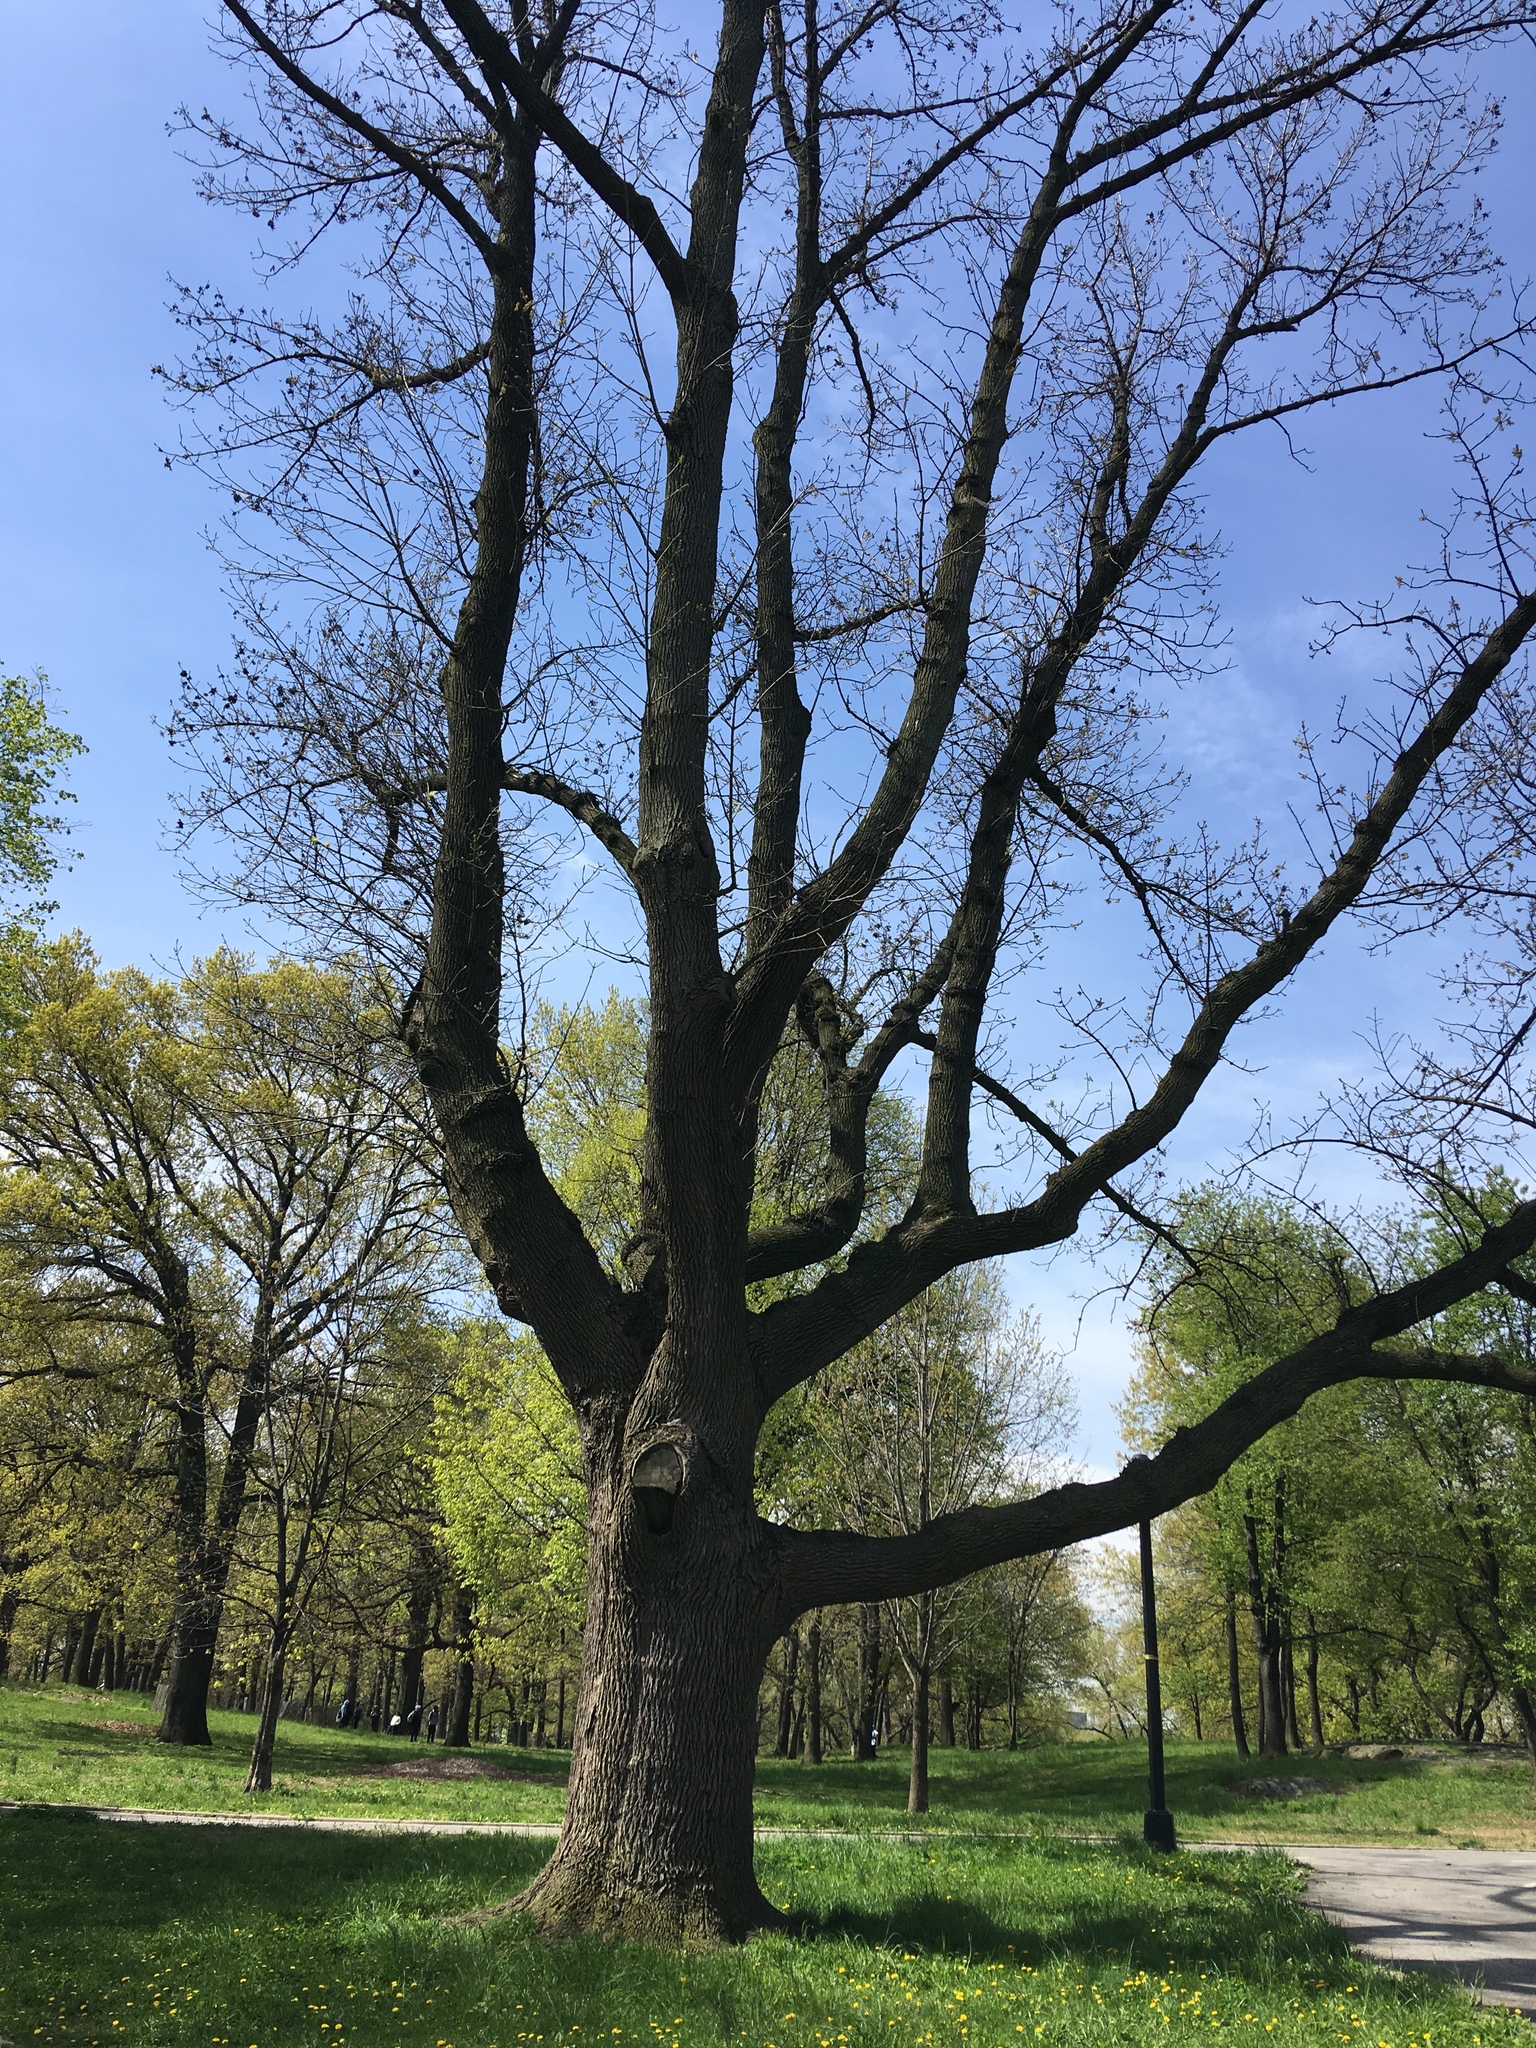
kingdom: Plantae
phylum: Tracheophyta
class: Magnoliopsida
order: Lamiales
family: Oleaceae
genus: Fraxinus
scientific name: Fraxinus americana
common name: White ash
